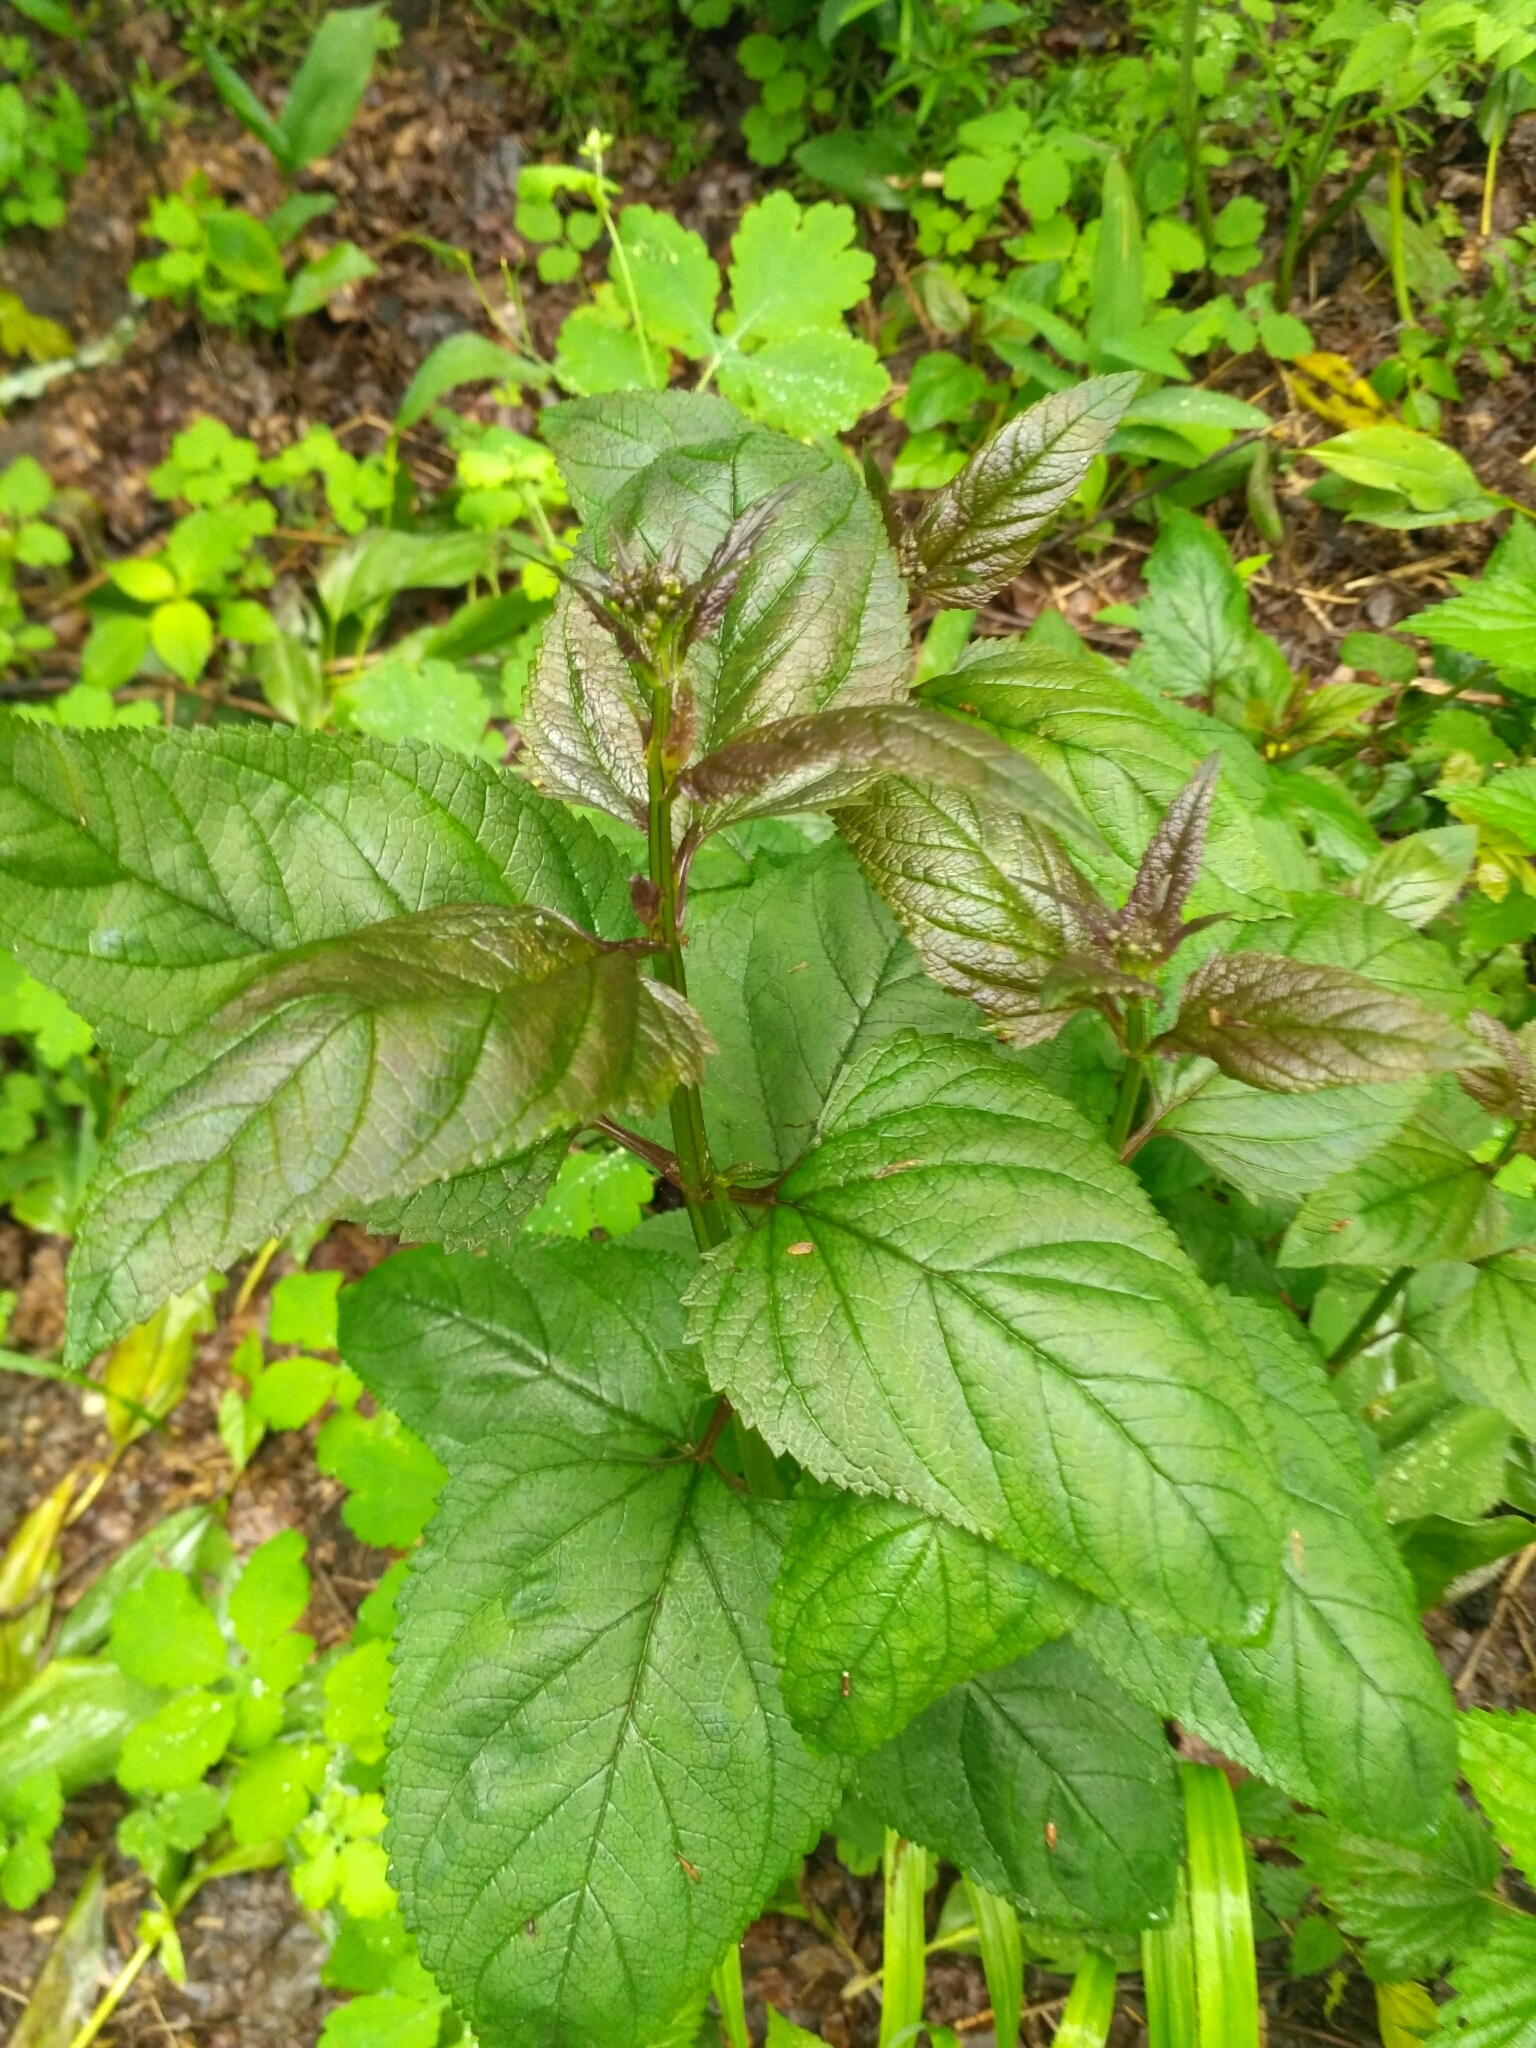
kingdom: Plantae
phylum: Tracheophyta
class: Magnoliopsida
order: Lamiales
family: Scrophulariaceae
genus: Scrophularia
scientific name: Scrophularia nodosa
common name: Common figwort
